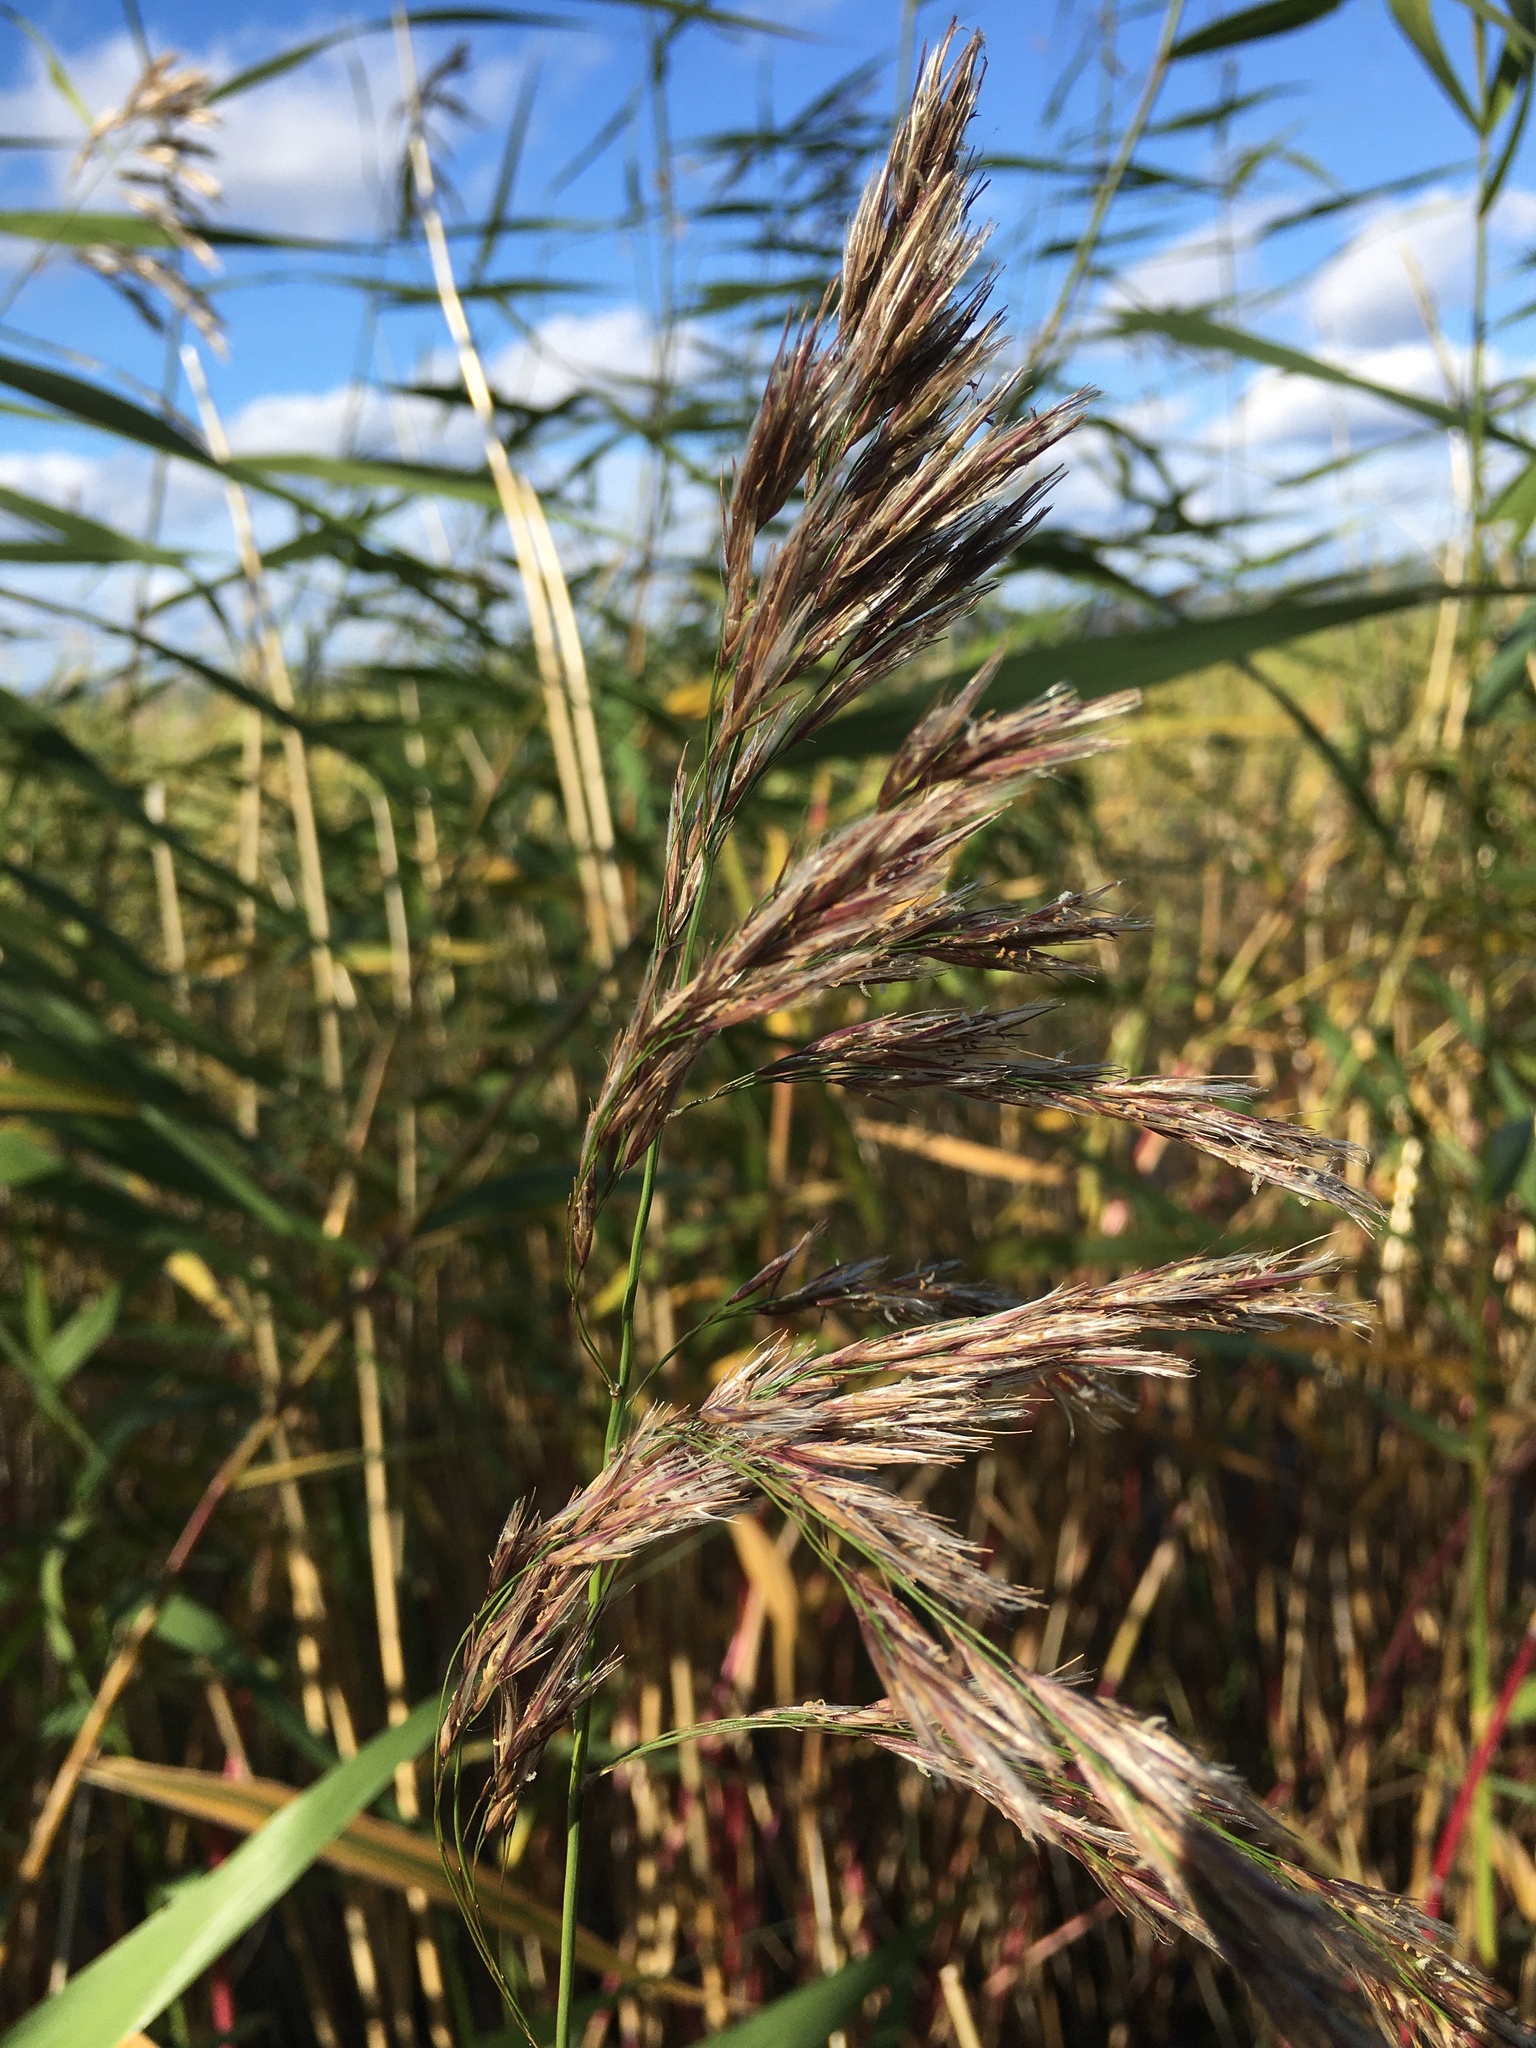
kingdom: Plantae
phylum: Tracheophyta
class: Liliopsida
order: Poales
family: Poaceae
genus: Phragmites
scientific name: Phragmites australis
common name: Common reed
